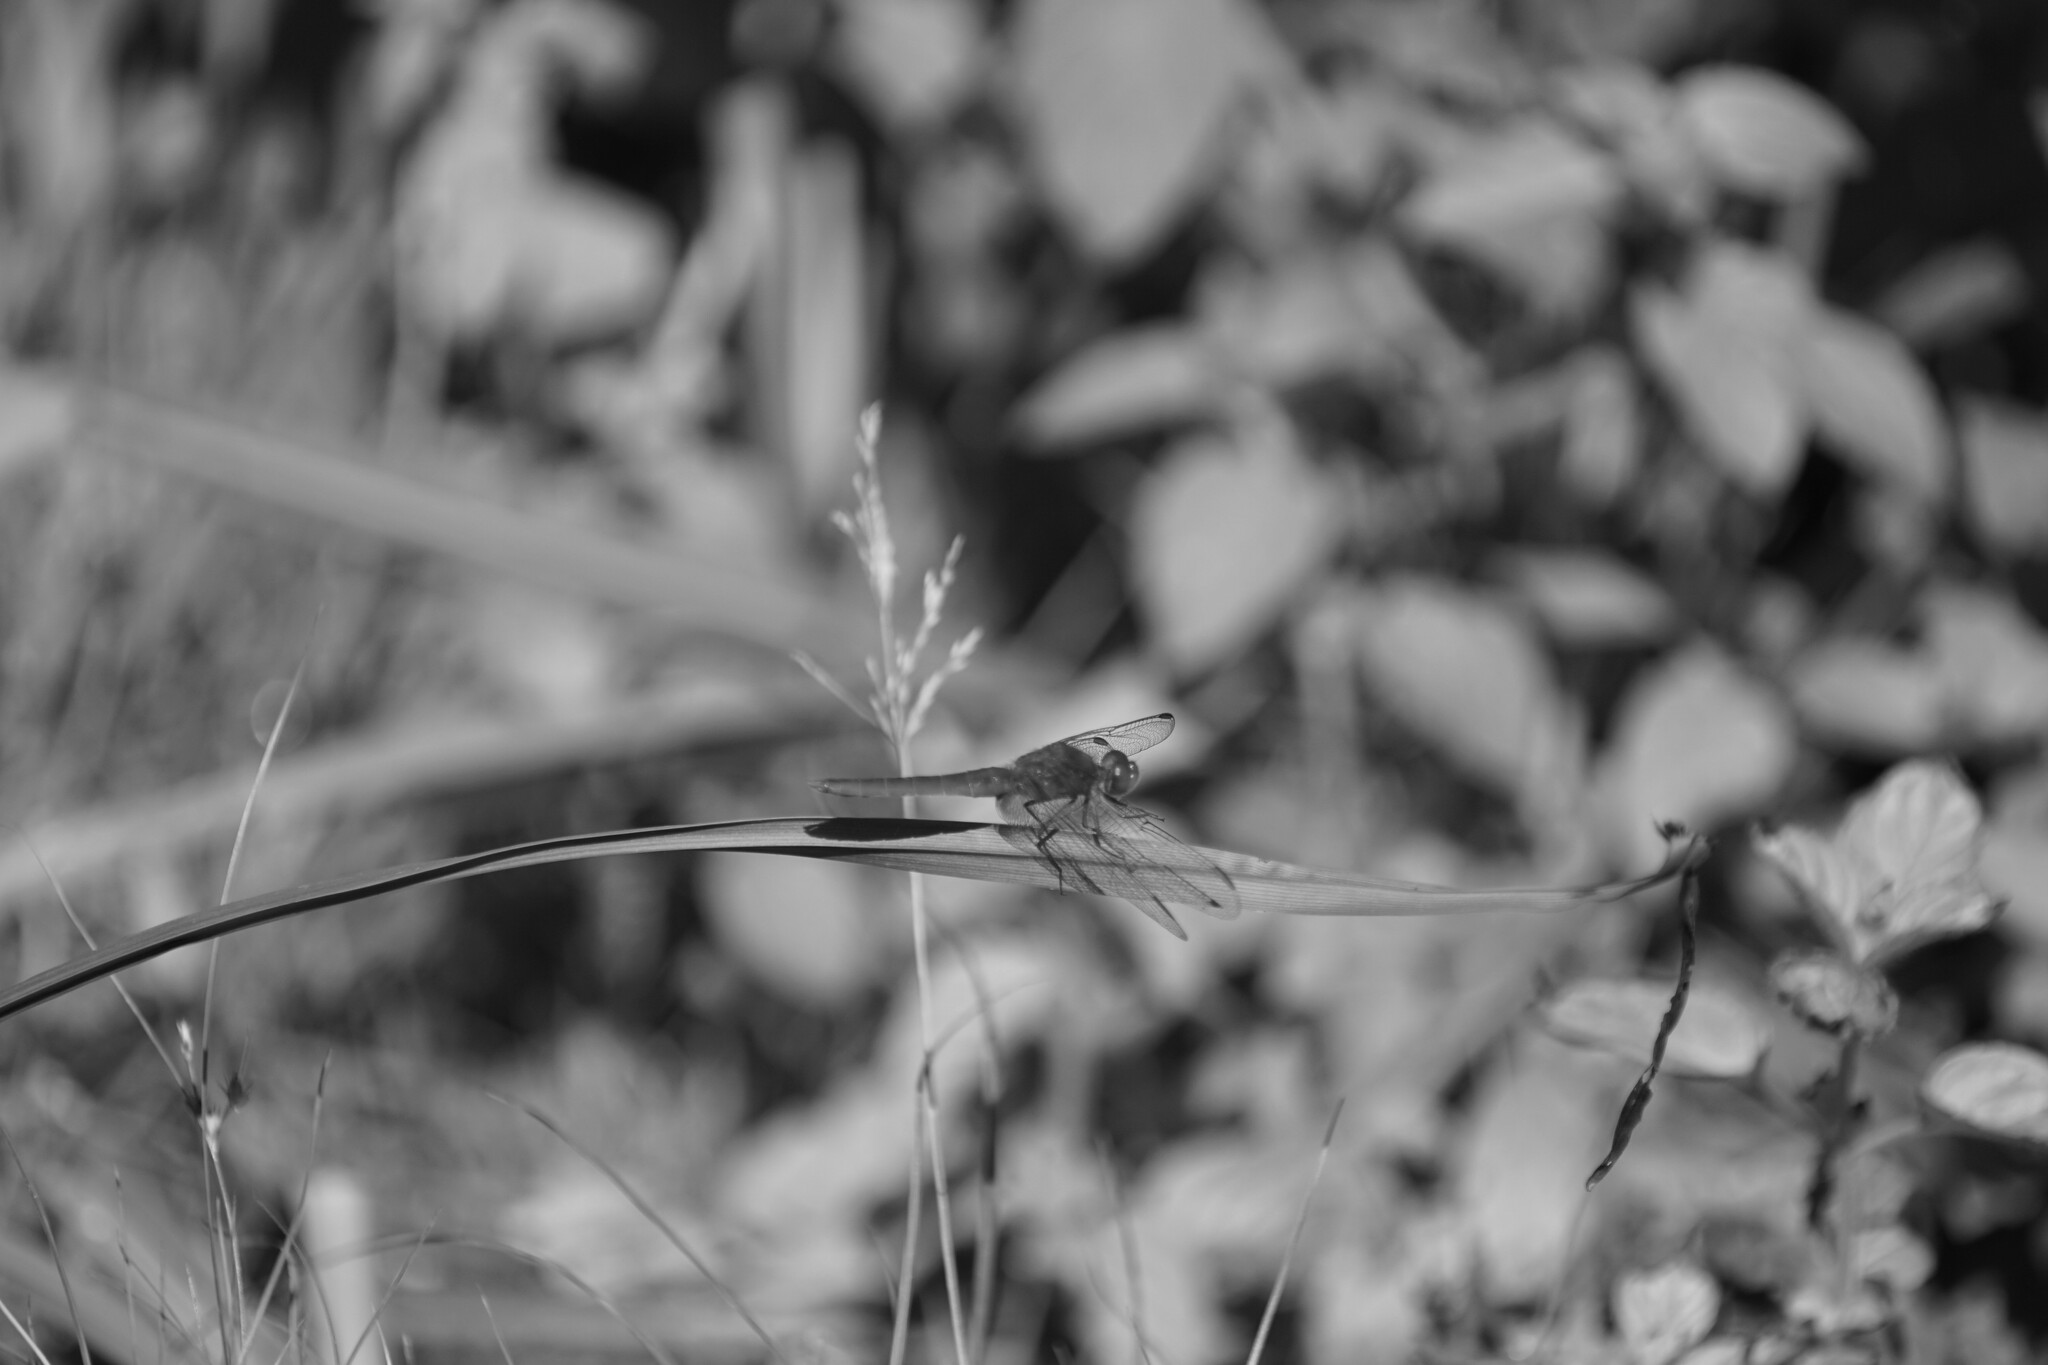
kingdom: Animalia
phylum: Arthropoda
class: Insecta
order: Odonata
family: Libellulidae
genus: Crocothemis
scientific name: Crocothemis erythraea
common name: Scarlet dragonfly
